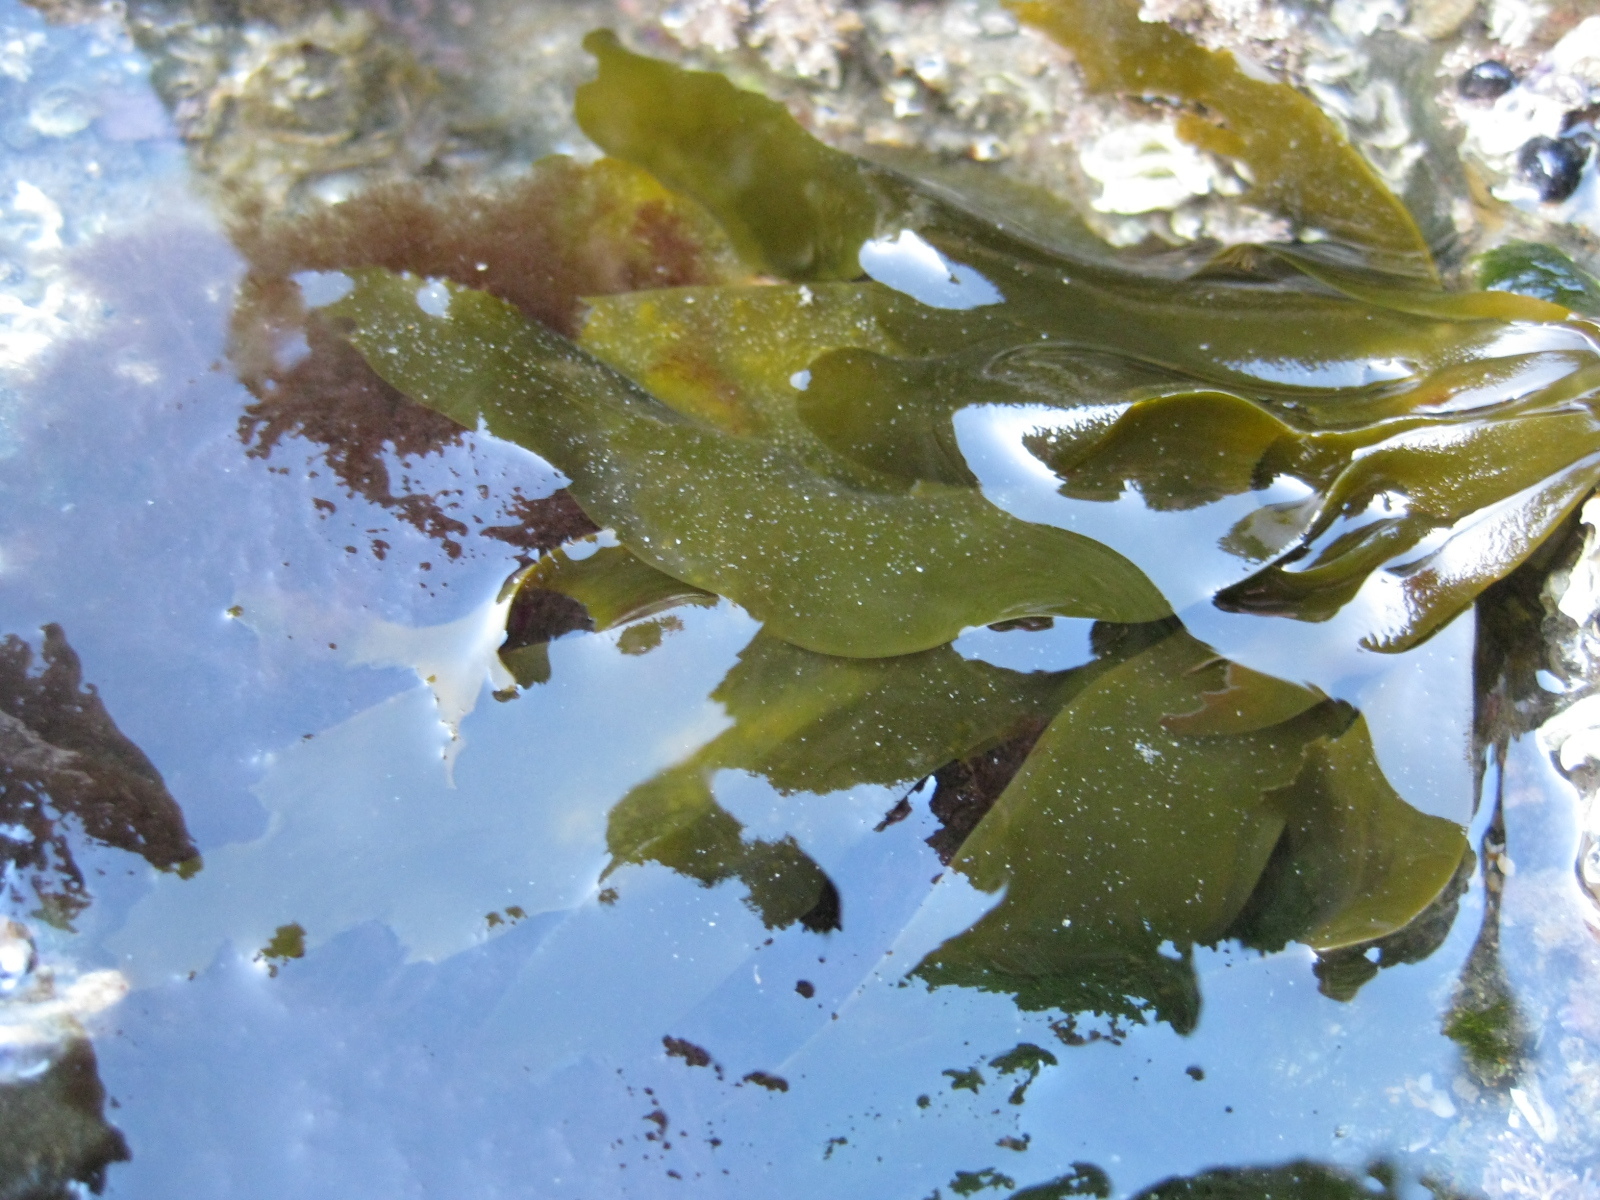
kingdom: Chromista
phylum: Ochrophyta
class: Phaeophyceae
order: Scytosiphonales
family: Scytosiphonaceae
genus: Petalonia
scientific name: Petalonia binghamiae
